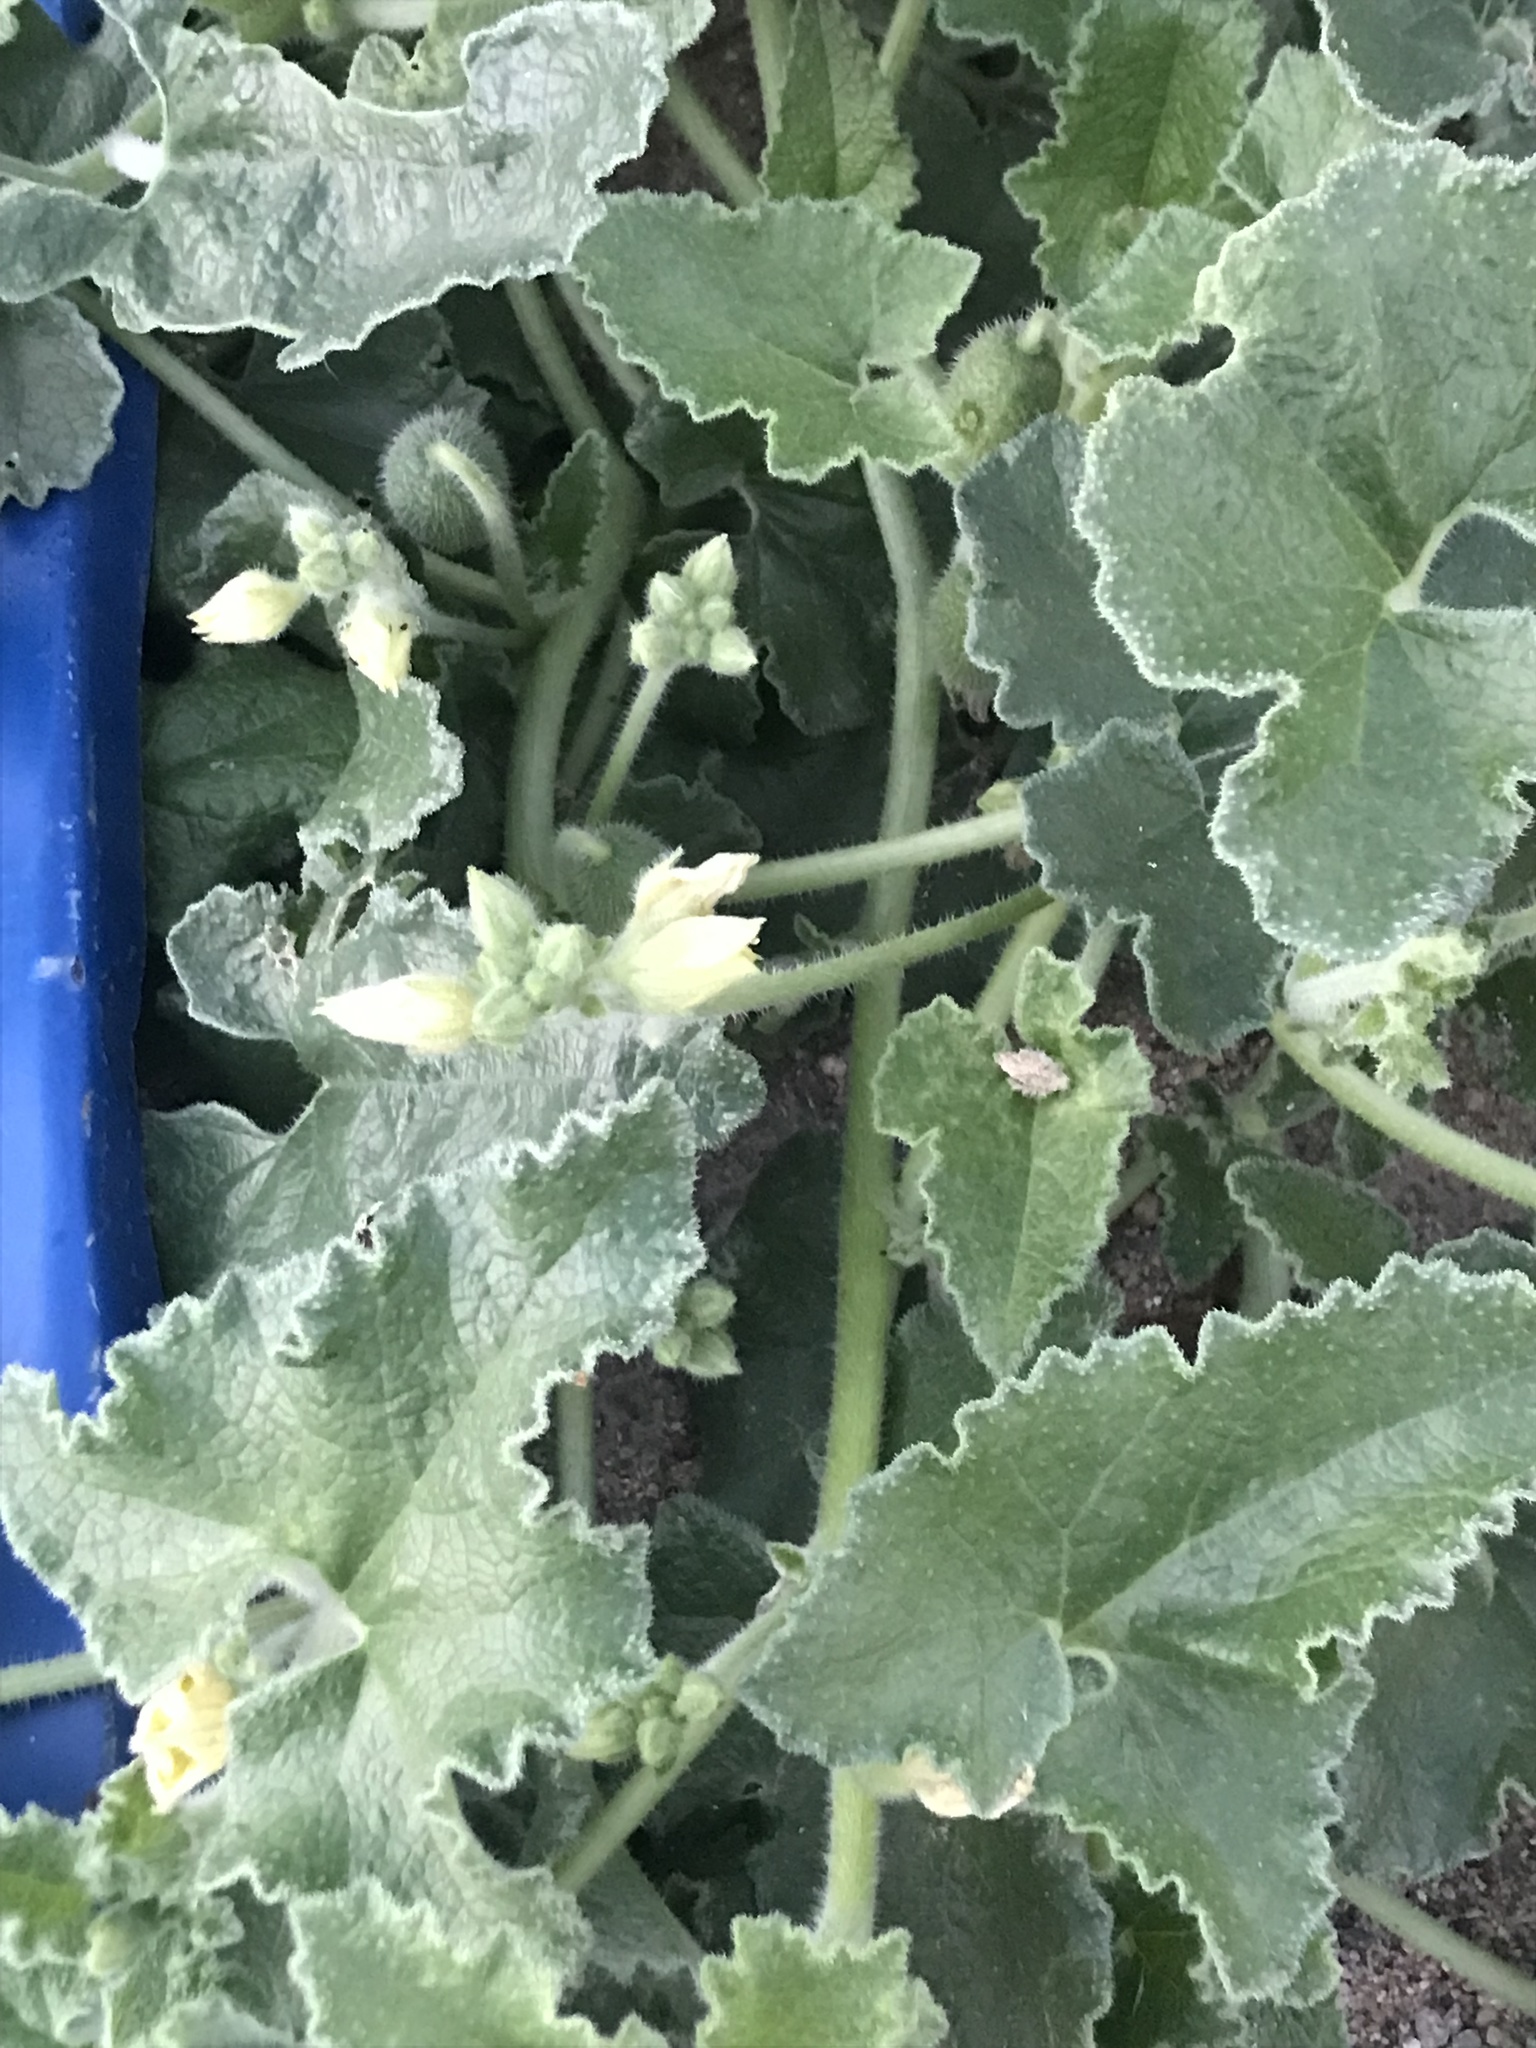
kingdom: Plantae
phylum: Tracheophyta
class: Magnoliopsida
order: Cucurbitales
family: Cucurbitaceae
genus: Ecballium
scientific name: Ecballium elaterium
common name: Squirting cucumber
